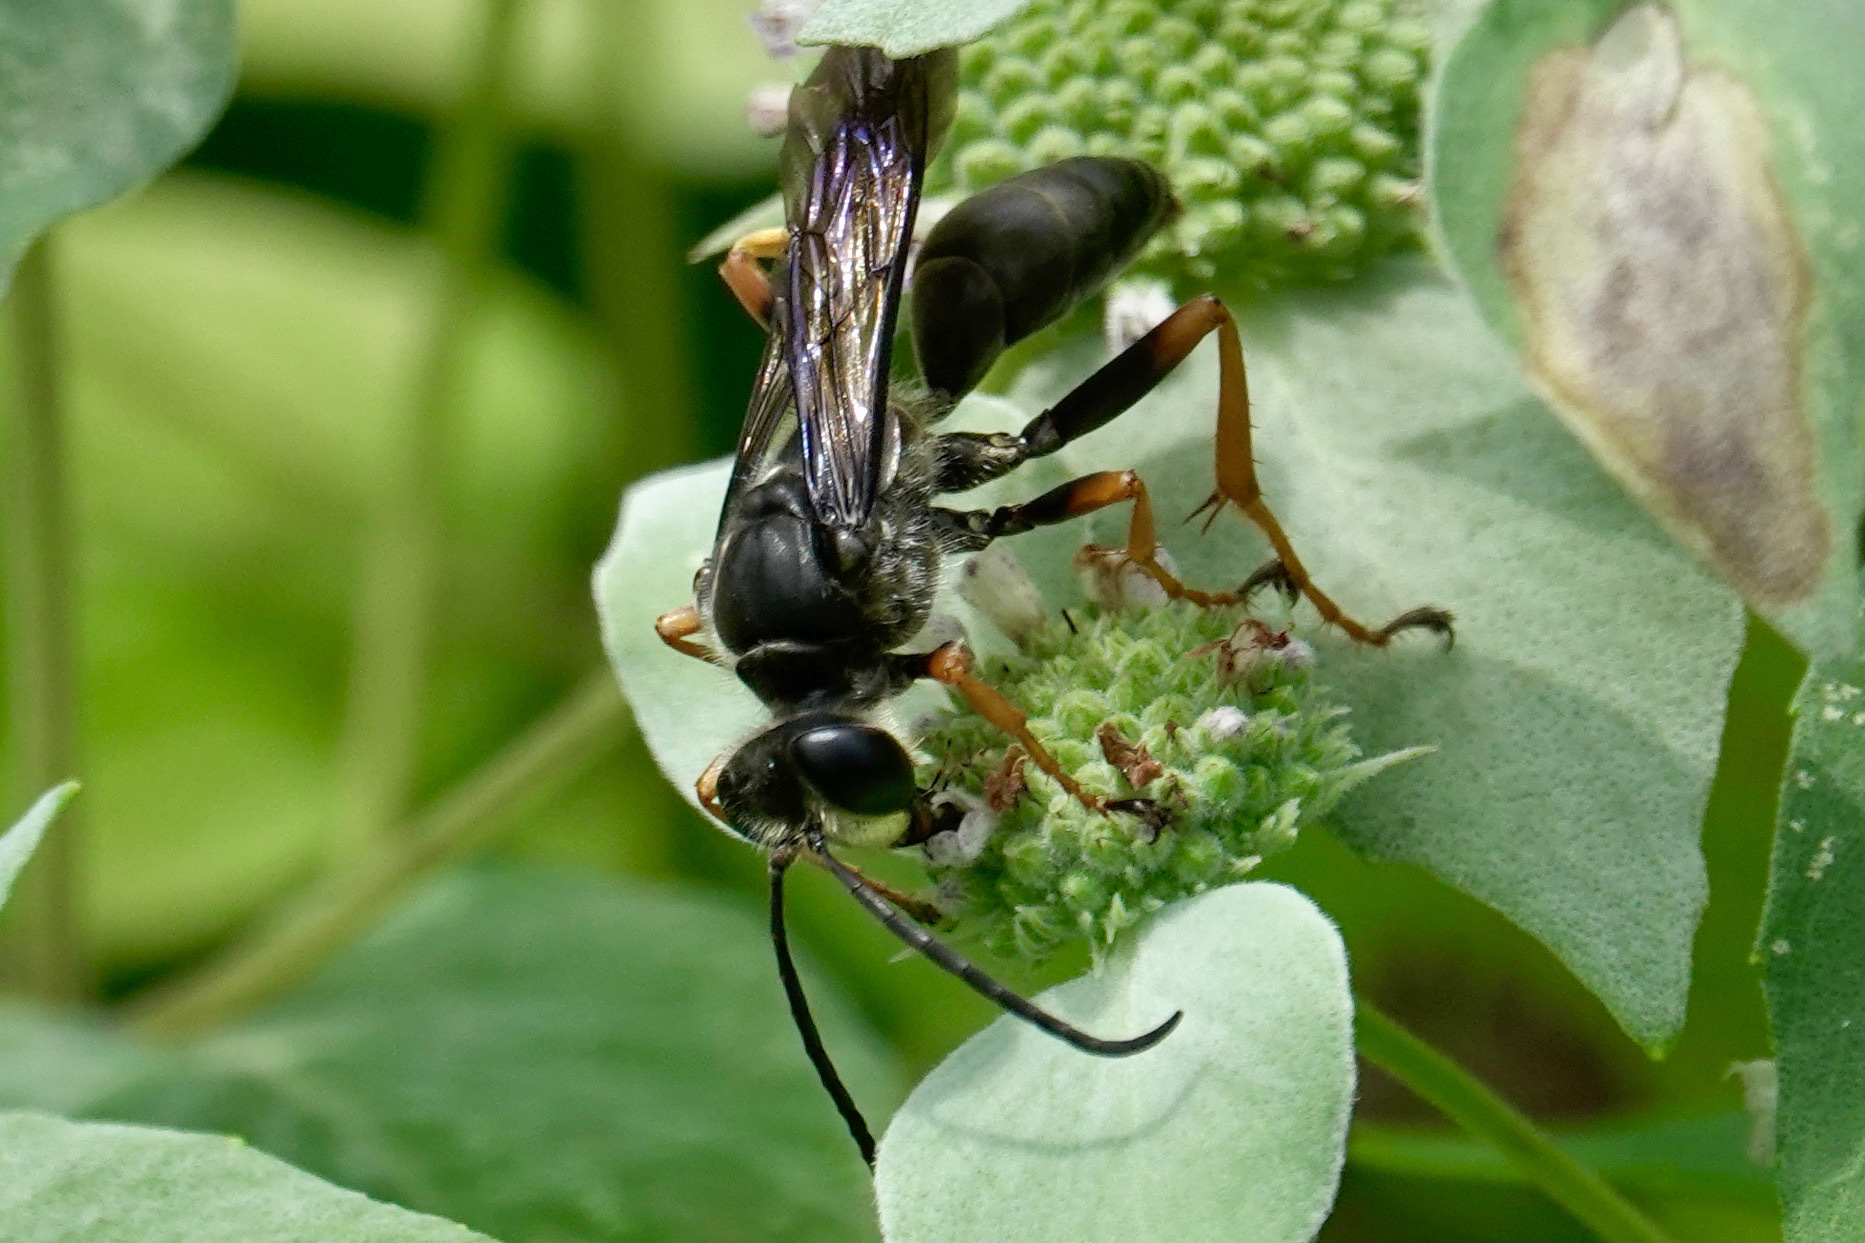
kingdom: Animalia
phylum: Arthropoda
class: Insecta
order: Hymenoptera
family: Sphecidae
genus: Sphex
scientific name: Sphex nudus
